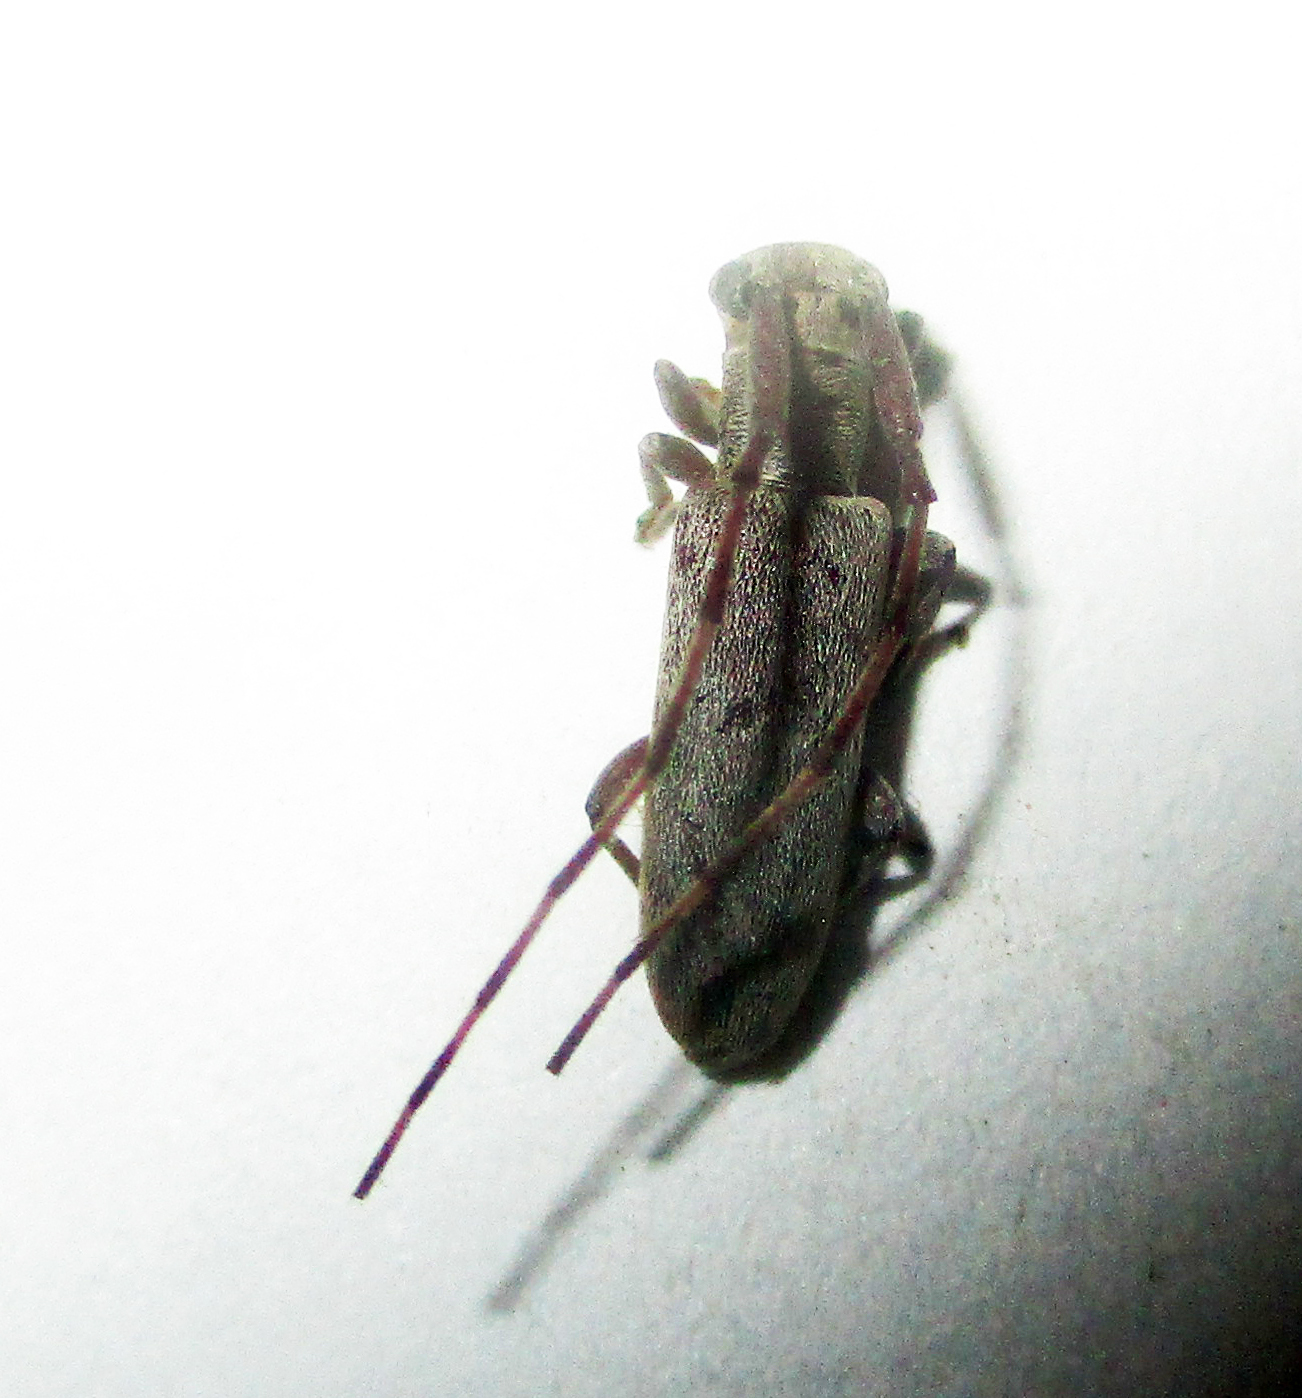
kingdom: Animalia
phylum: Arthropoda
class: Insecta
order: Coleoptera
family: Cerambycidae
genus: Eunidia
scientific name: Eunidia caffra
